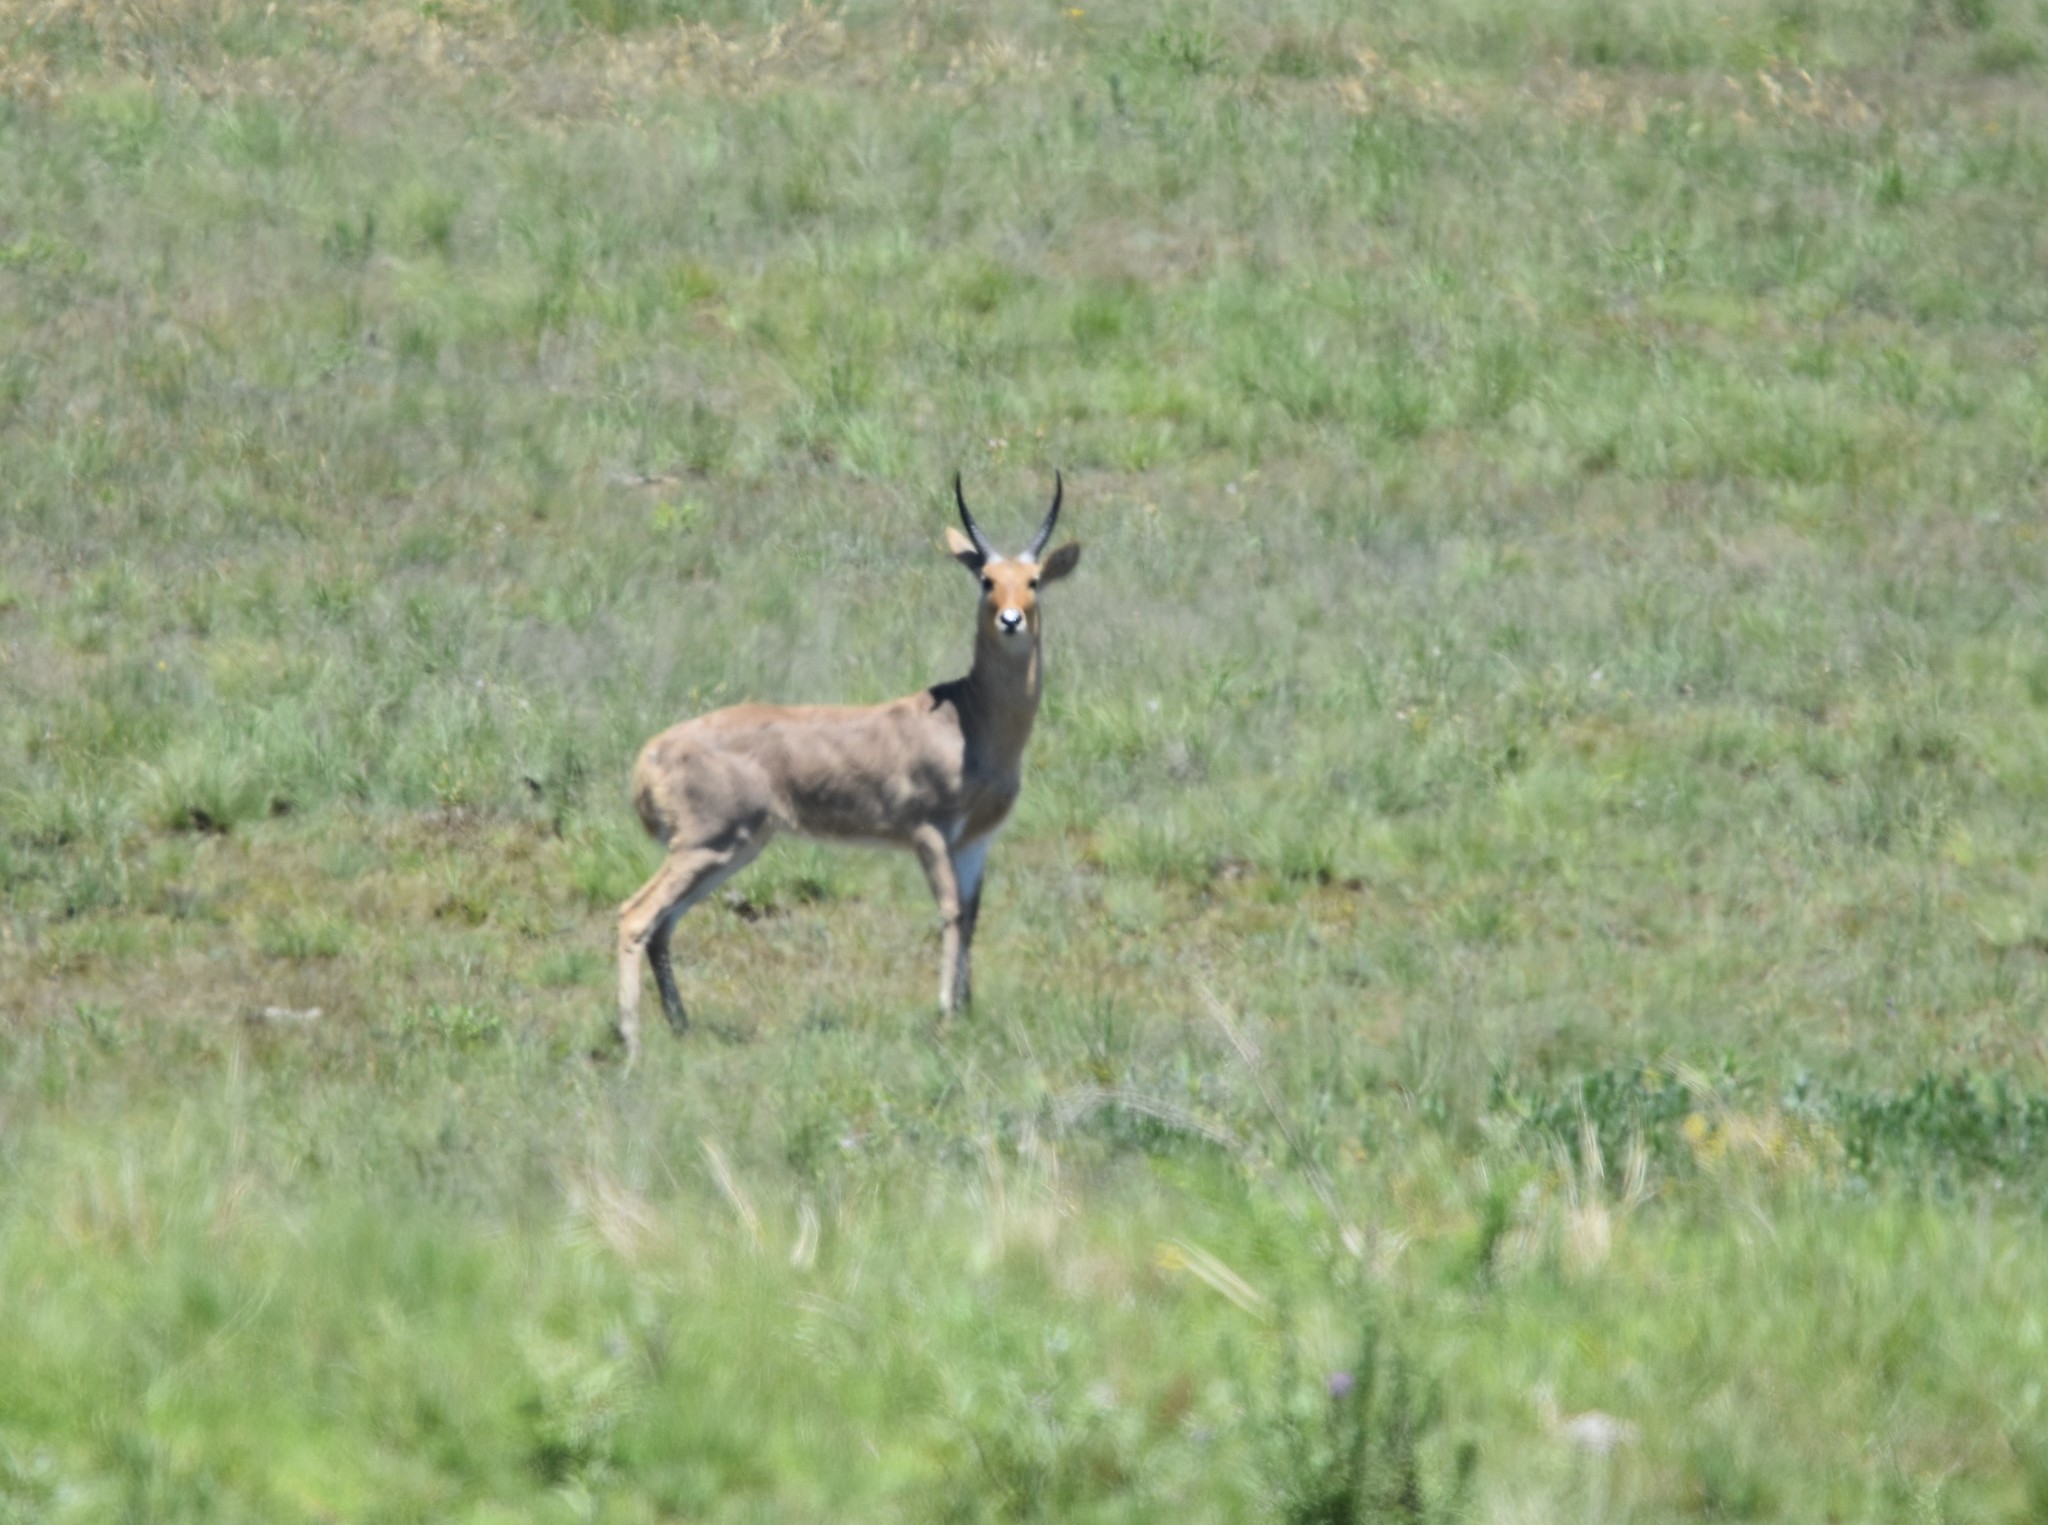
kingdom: Animalia
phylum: Chordata
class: Mammalia
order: Artiodactyla
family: Bovidae
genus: Redunca
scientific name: Redunca arundinum
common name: Southern reedbuck
